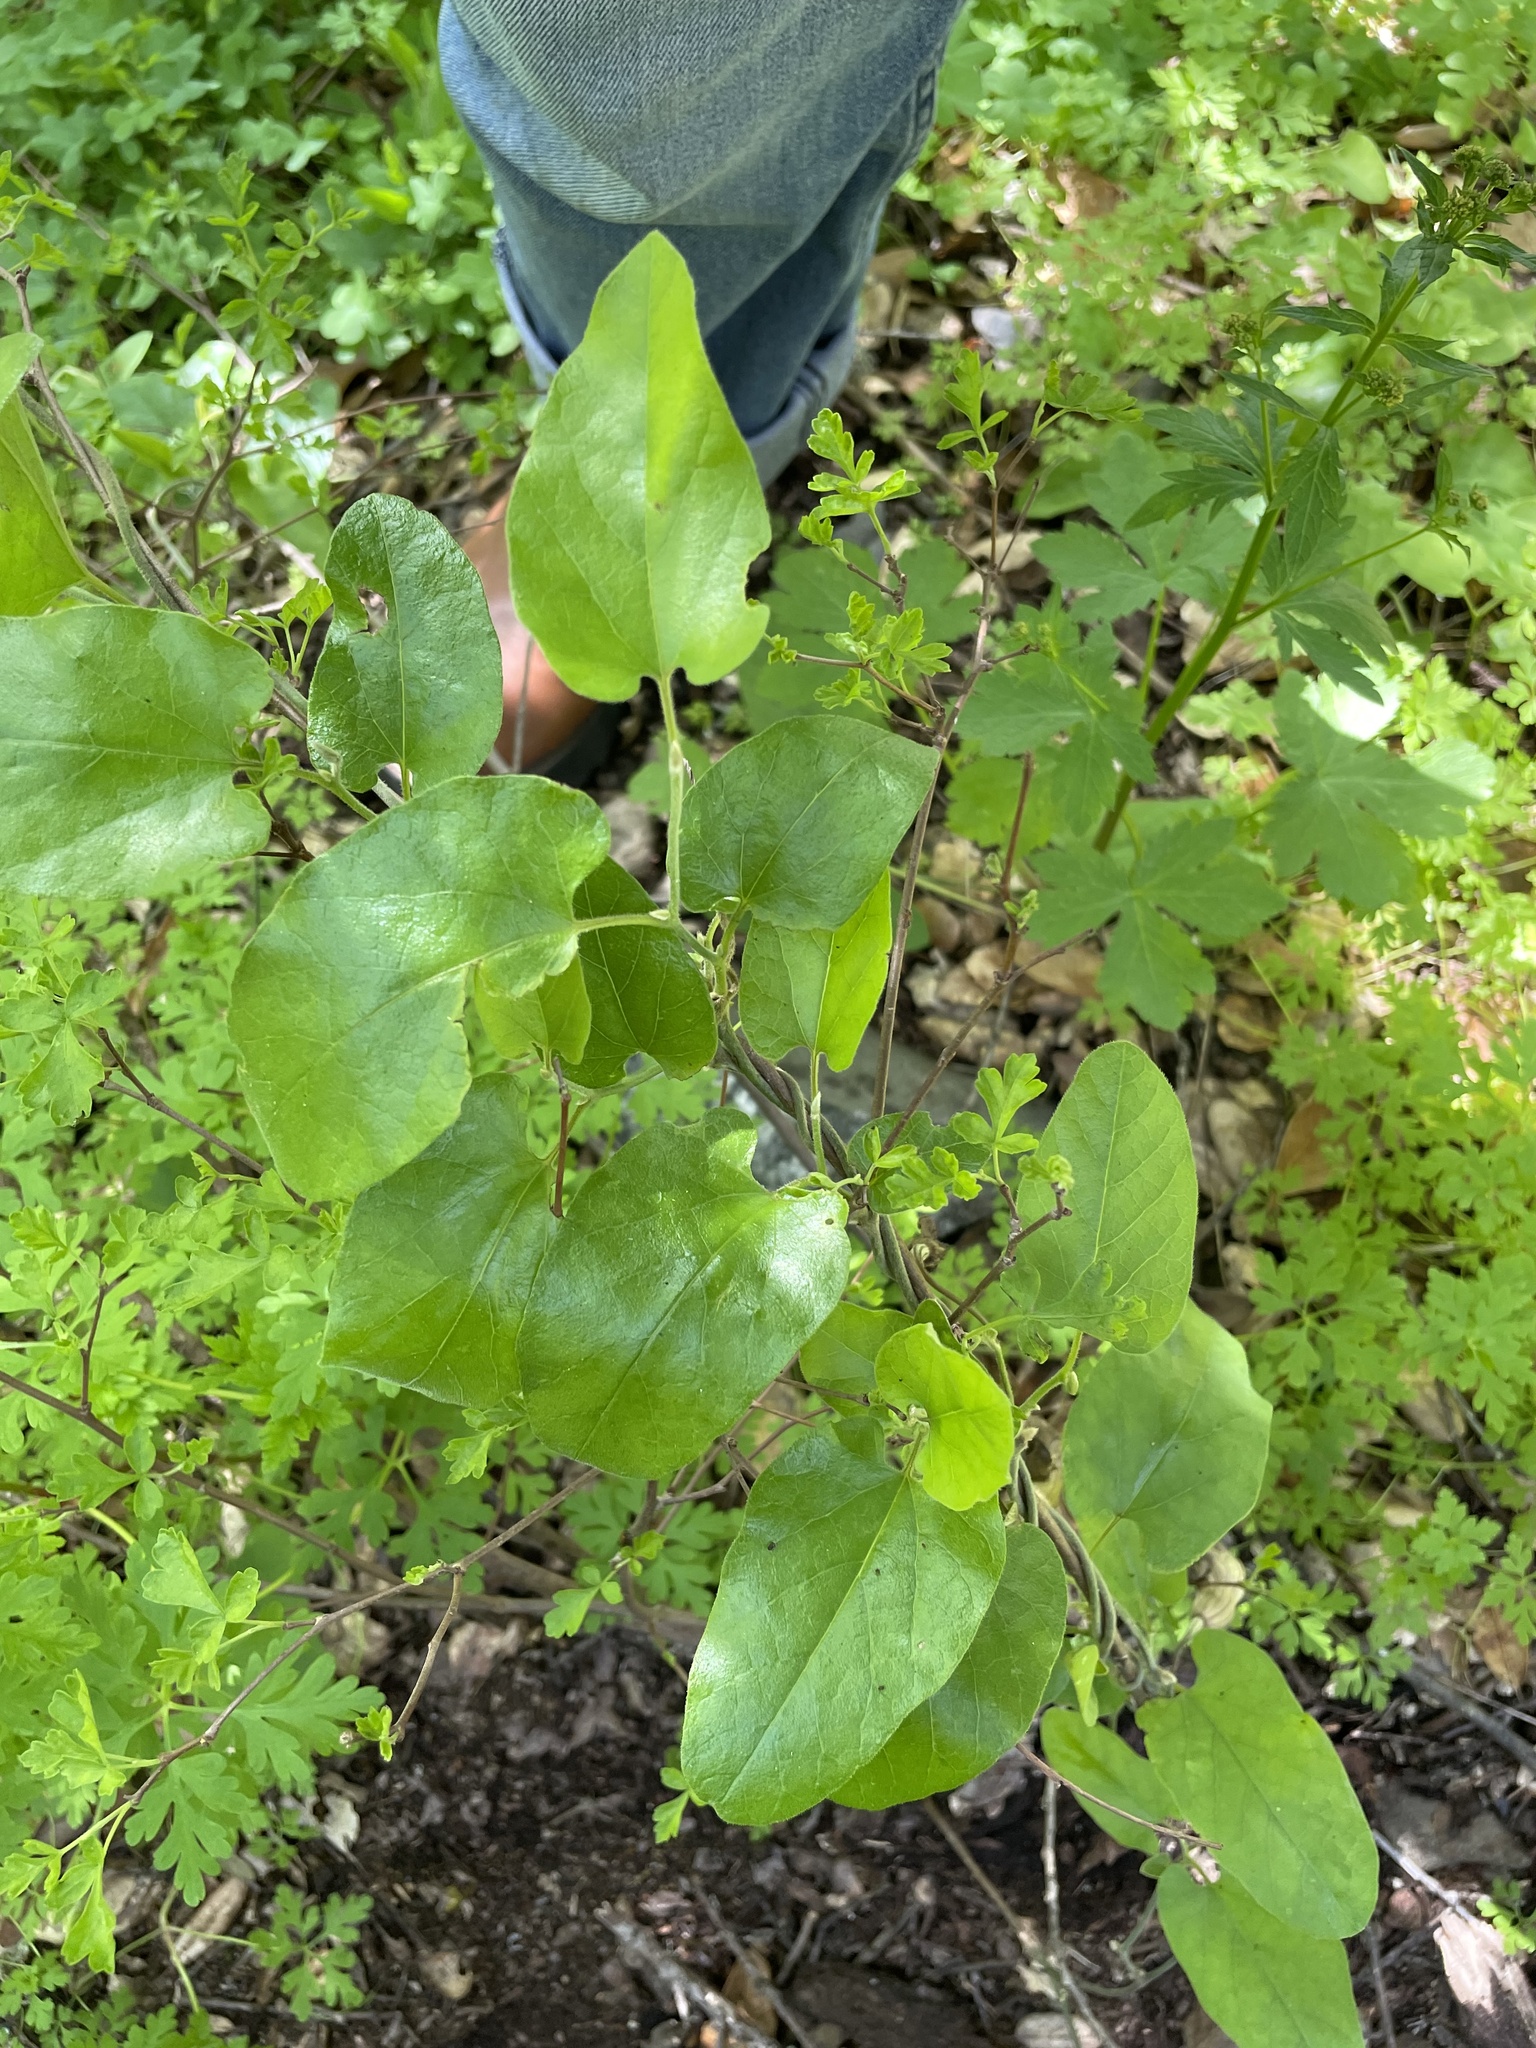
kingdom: Plantae
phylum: Tracheophyta
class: Magnoliopsida
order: Piperales
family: Aristolochiaceae
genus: Isotrema
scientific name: Isotrema californicum
